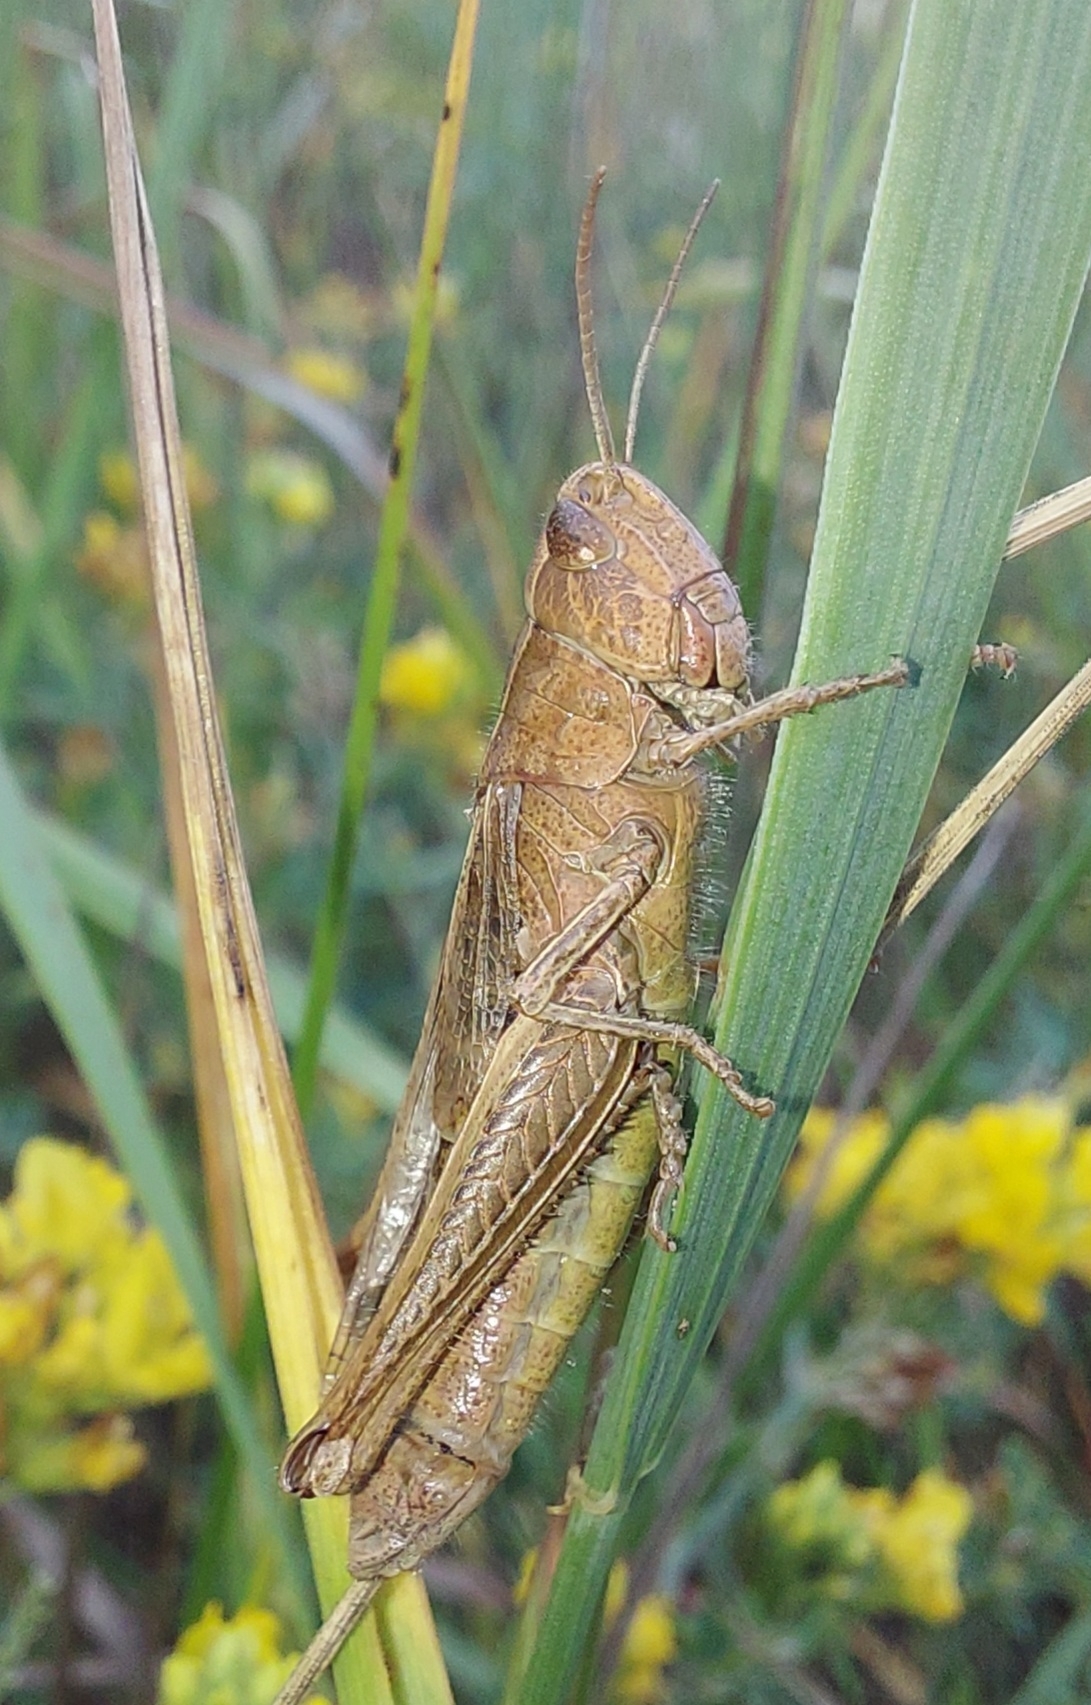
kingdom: Animalia
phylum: Arthropoda
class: Insecta
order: Orthoptera
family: Acrididae
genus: Chorthippus
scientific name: Chorthippus dorsatus
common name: Steppe grasshopper
